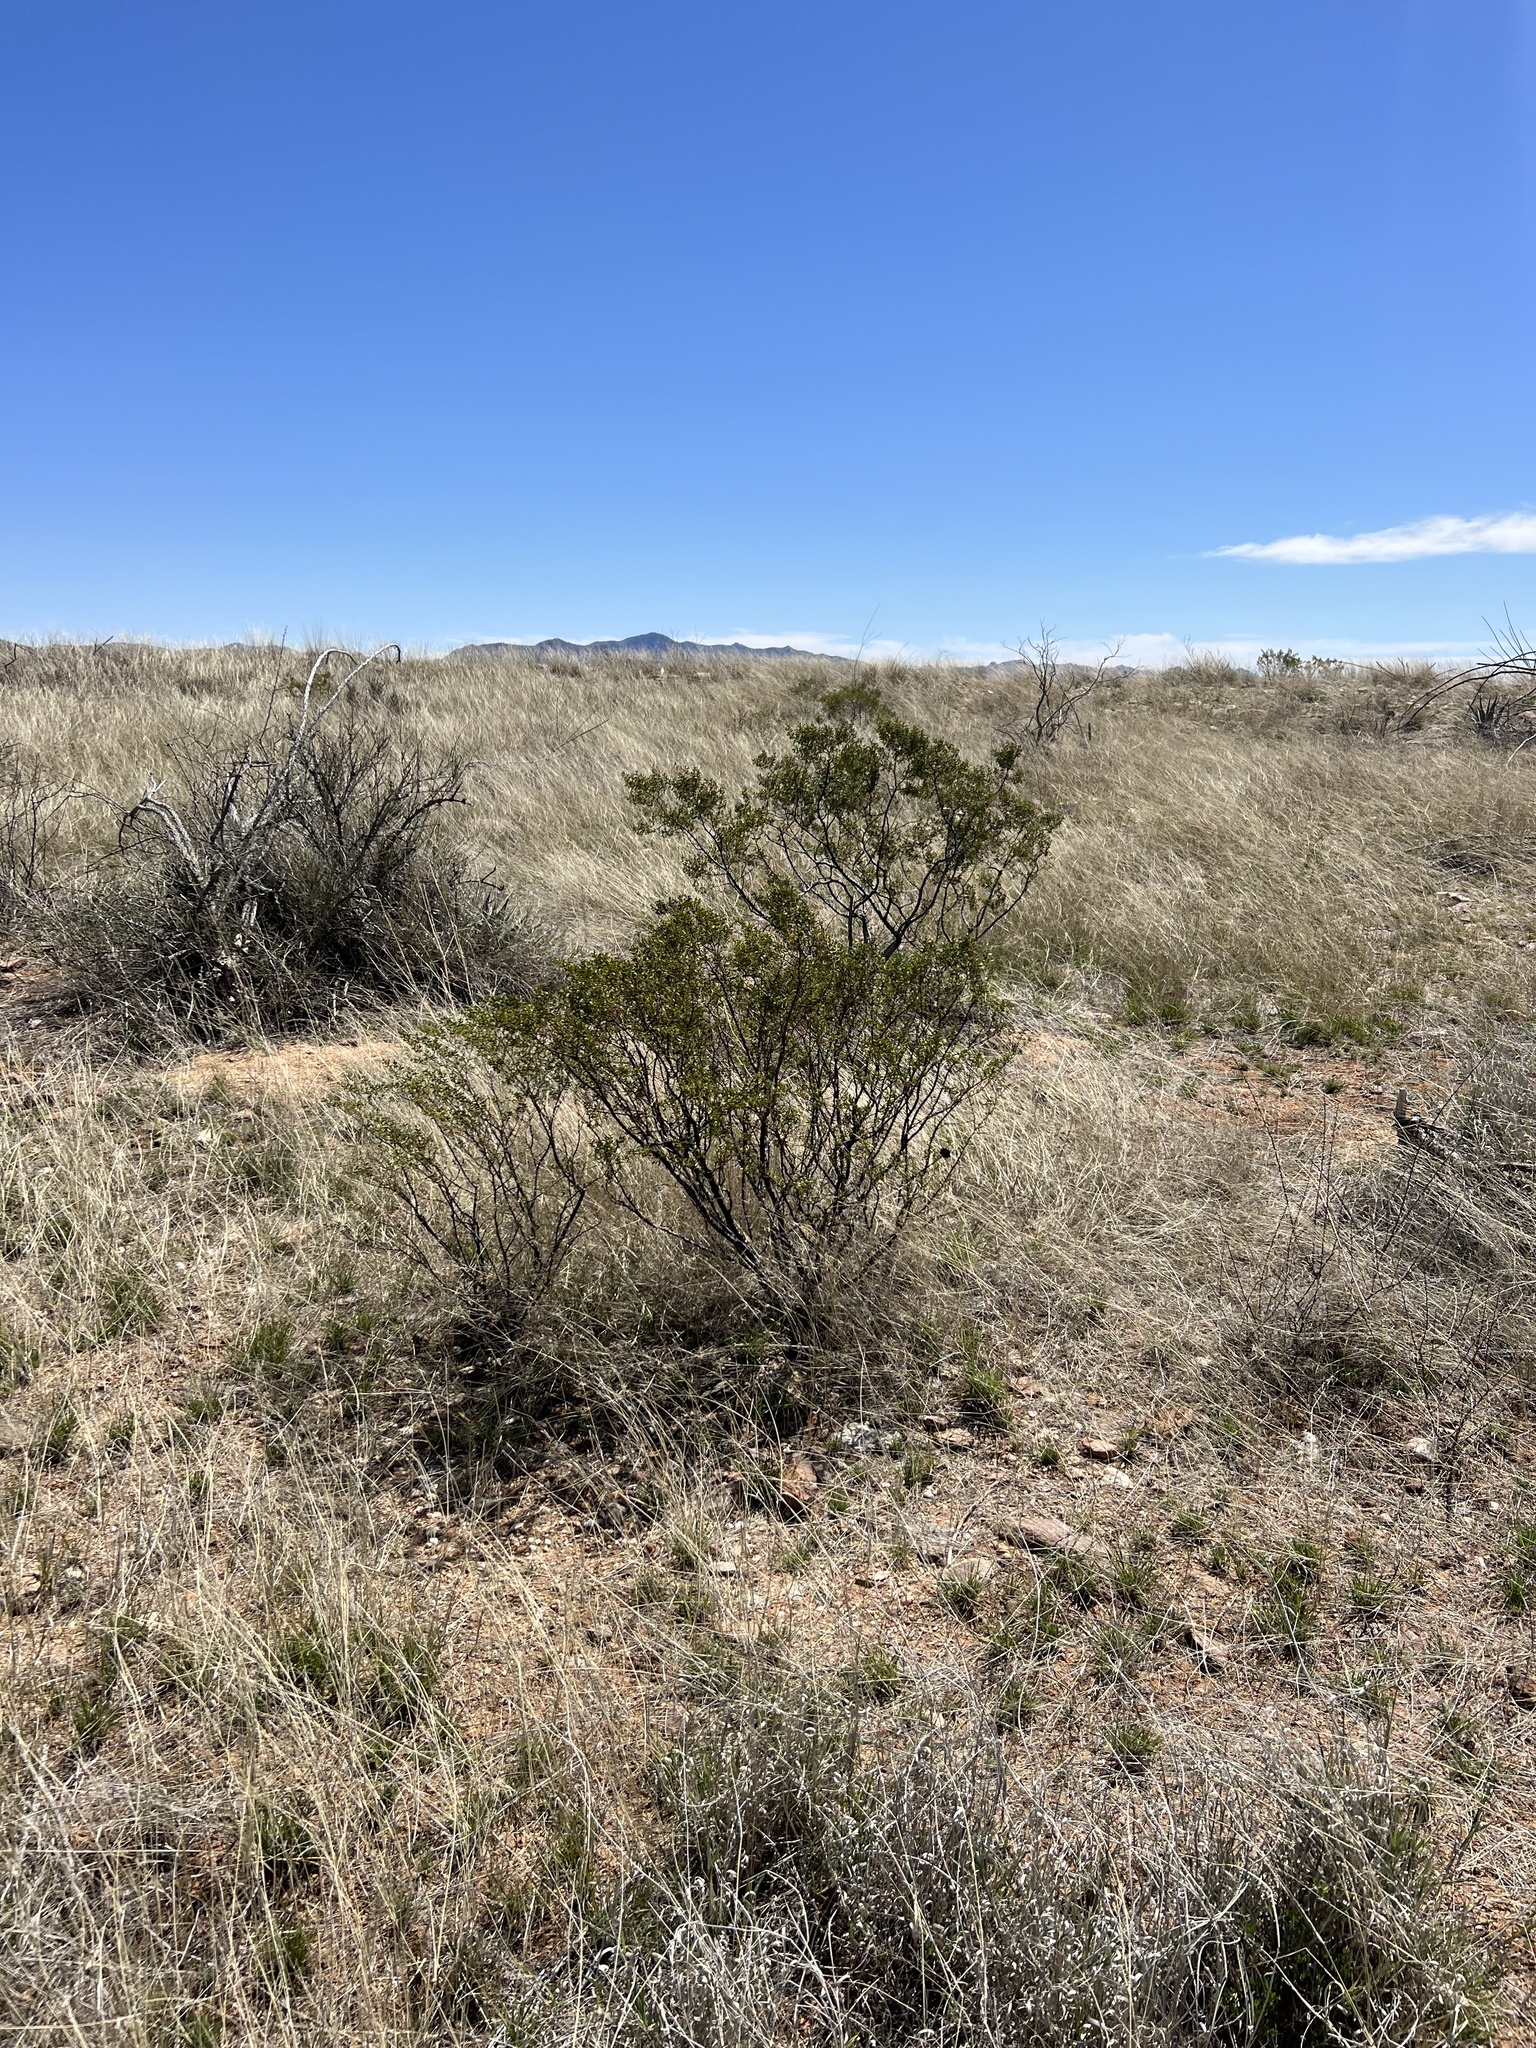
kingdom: Plantae
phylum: Tracheophyta
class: Magnoliopsida
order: Zygophyllales
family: Zygophyllaceae
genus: Larrea
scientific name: Larrea tridentata
